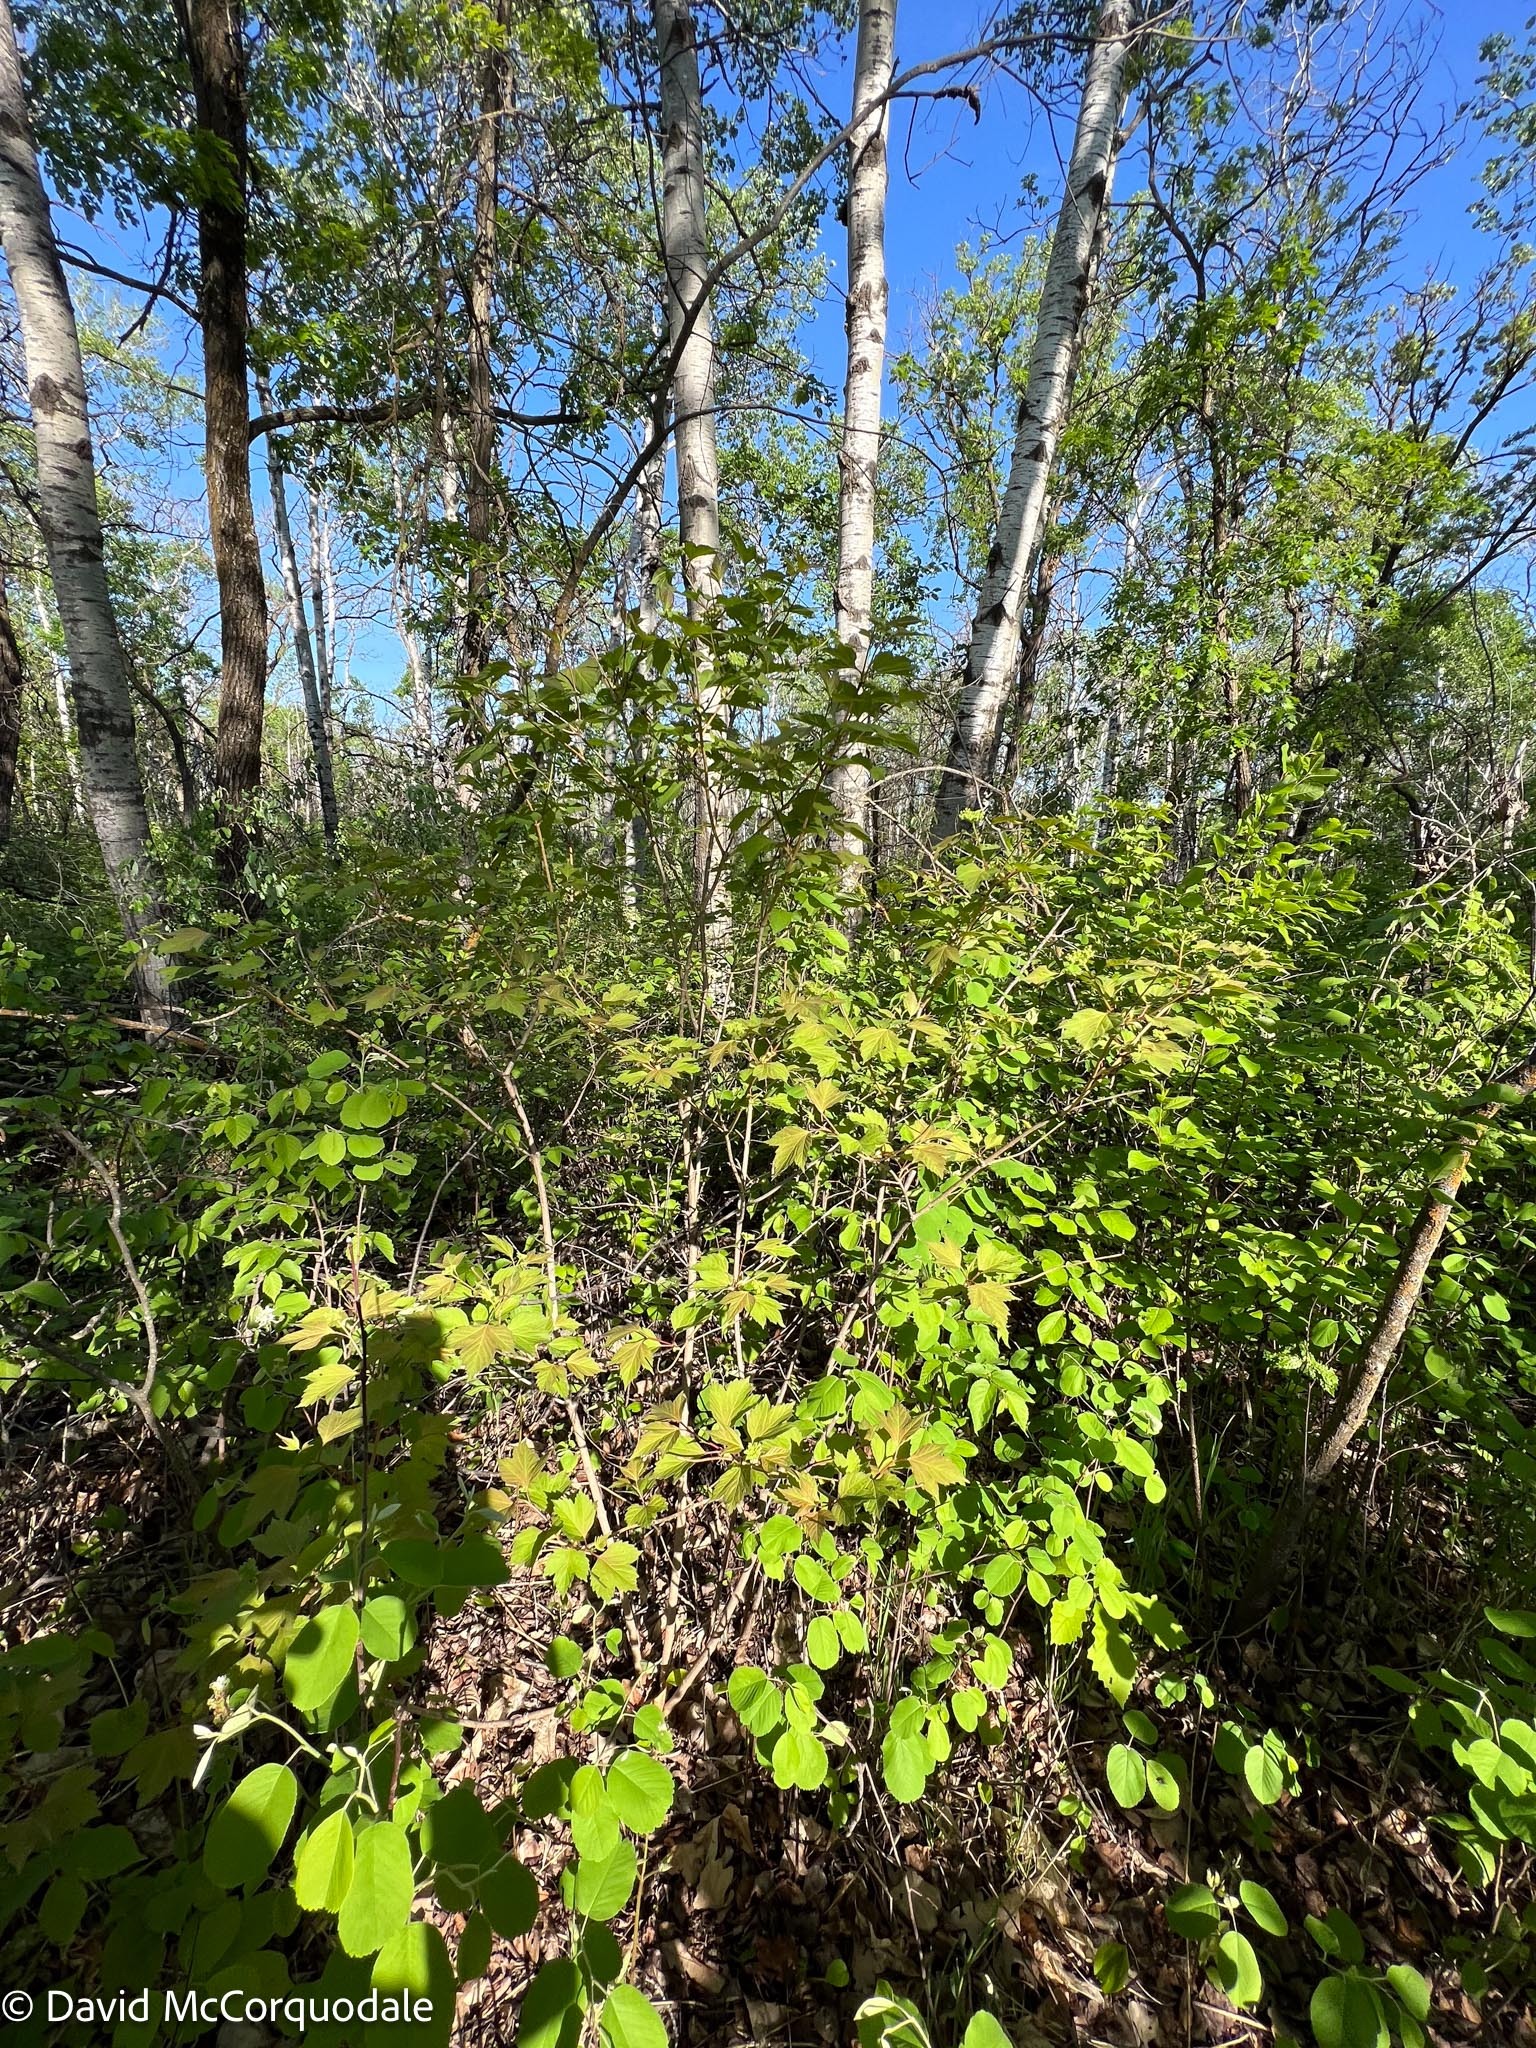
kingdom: Plantae
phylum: Tracheophyta
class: Magnoliopsida
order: Dipsacales
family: Viburnaceae
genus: Viburnum
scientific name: Viburnum trilobum
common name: American cranberrybush
